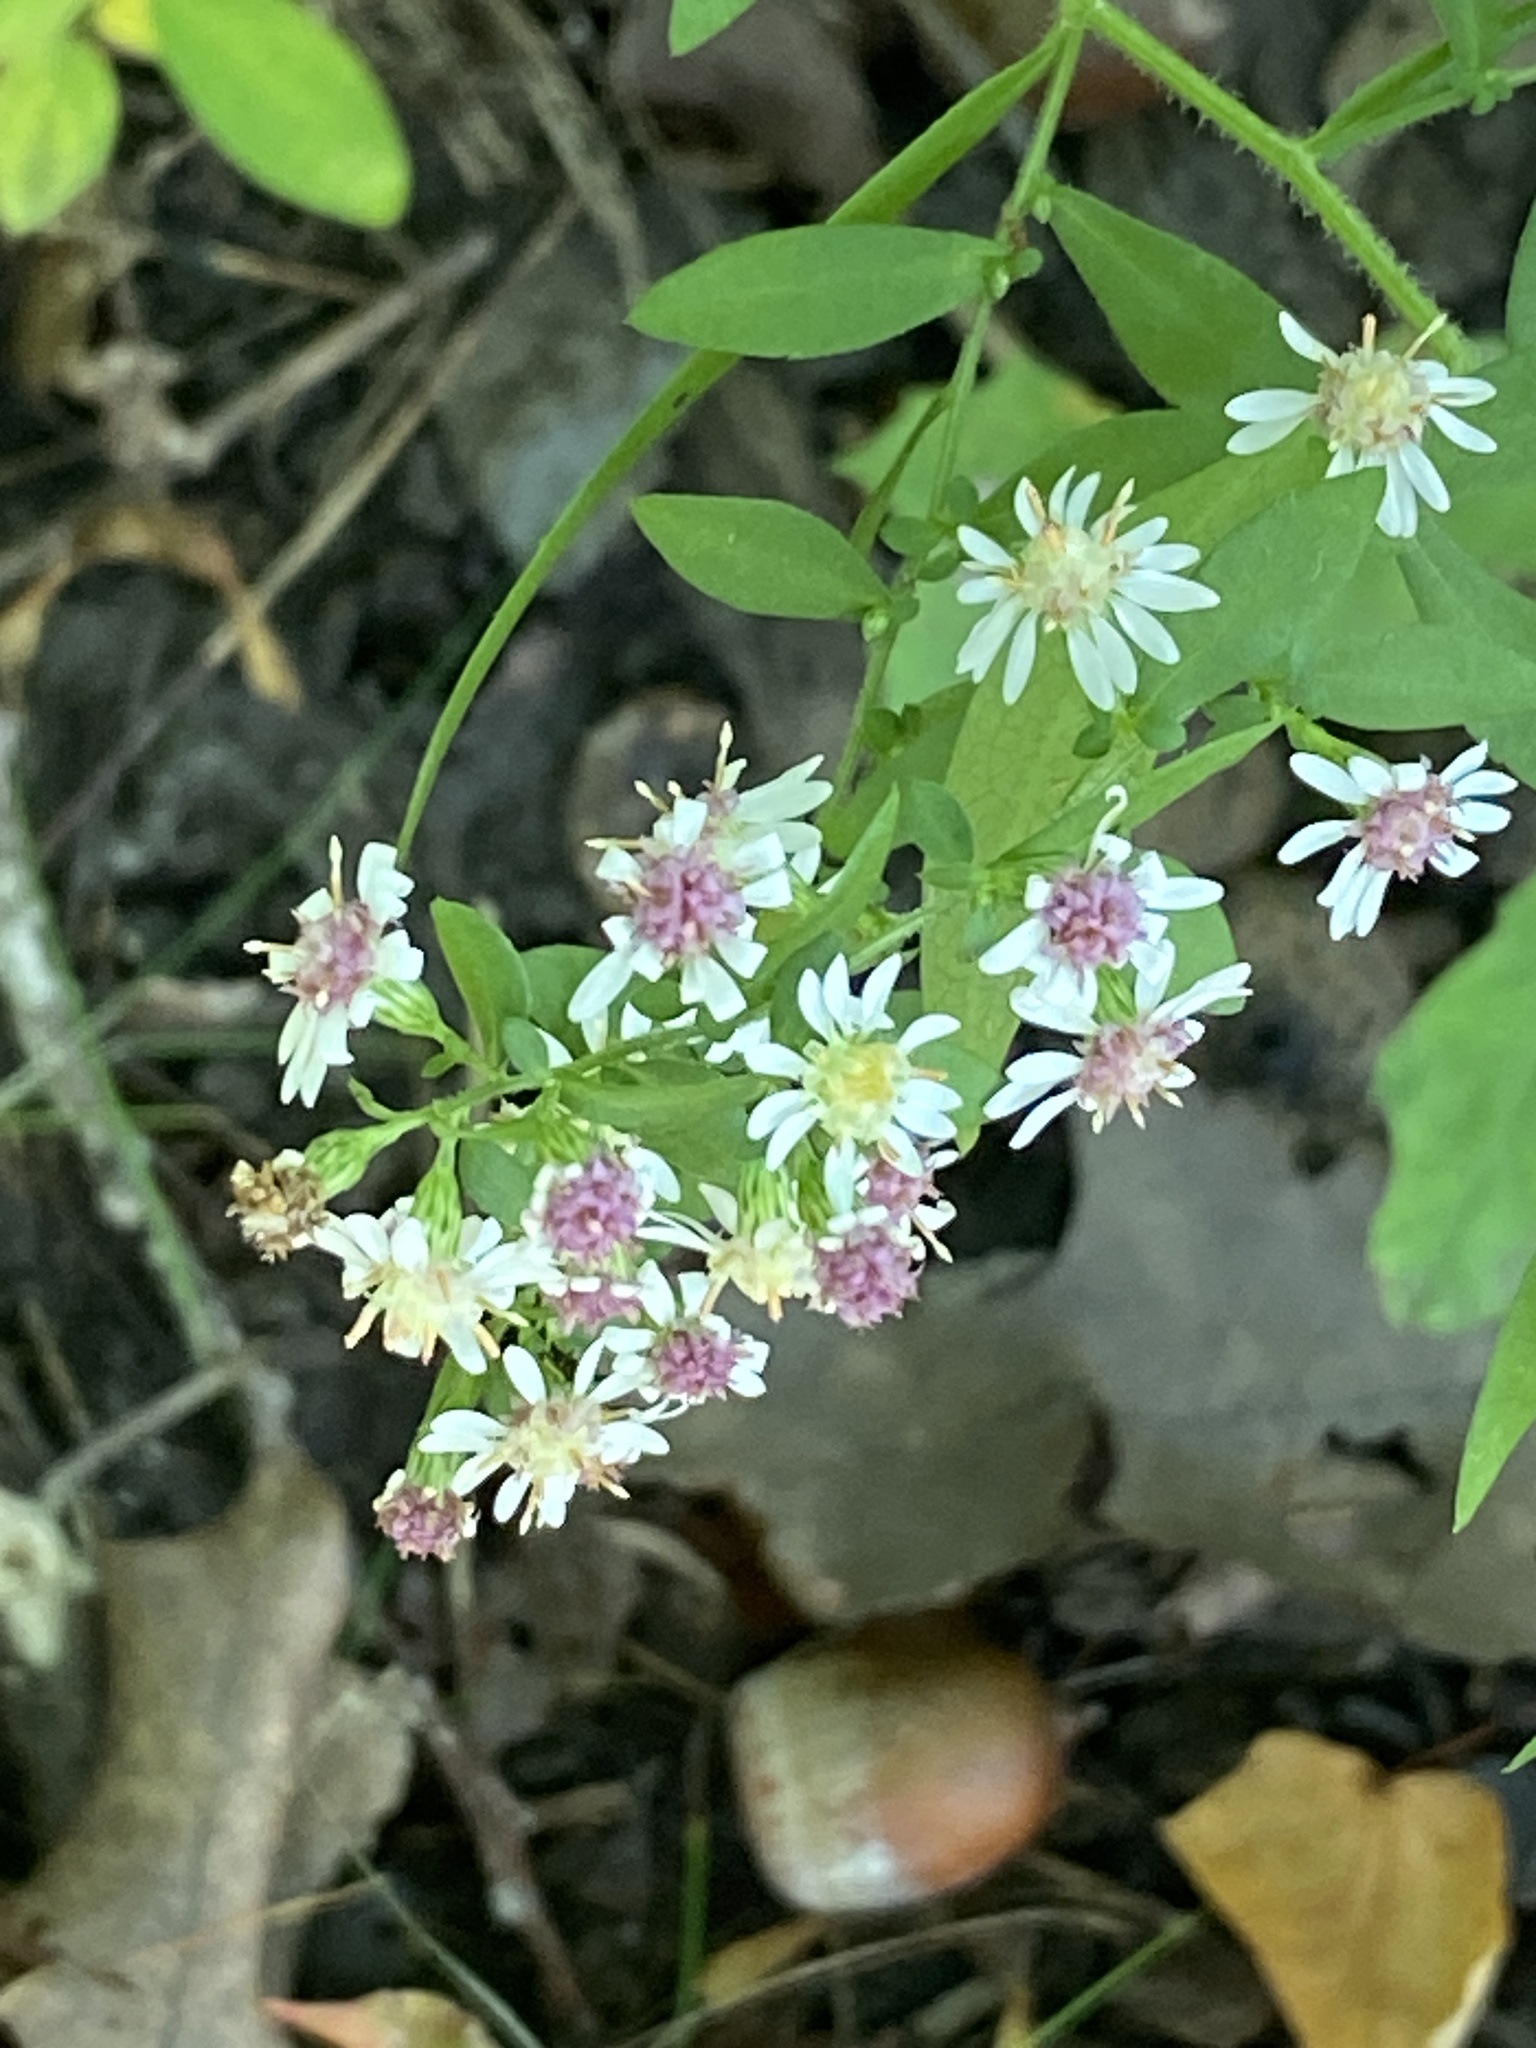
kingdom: Plantae
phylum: Tracheophyta
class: Magnoliopsida
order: Asterales
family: Asteraceae
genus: Symphyotrichum
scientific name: Symphyotrichum lateriflorum
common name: Calico aster
